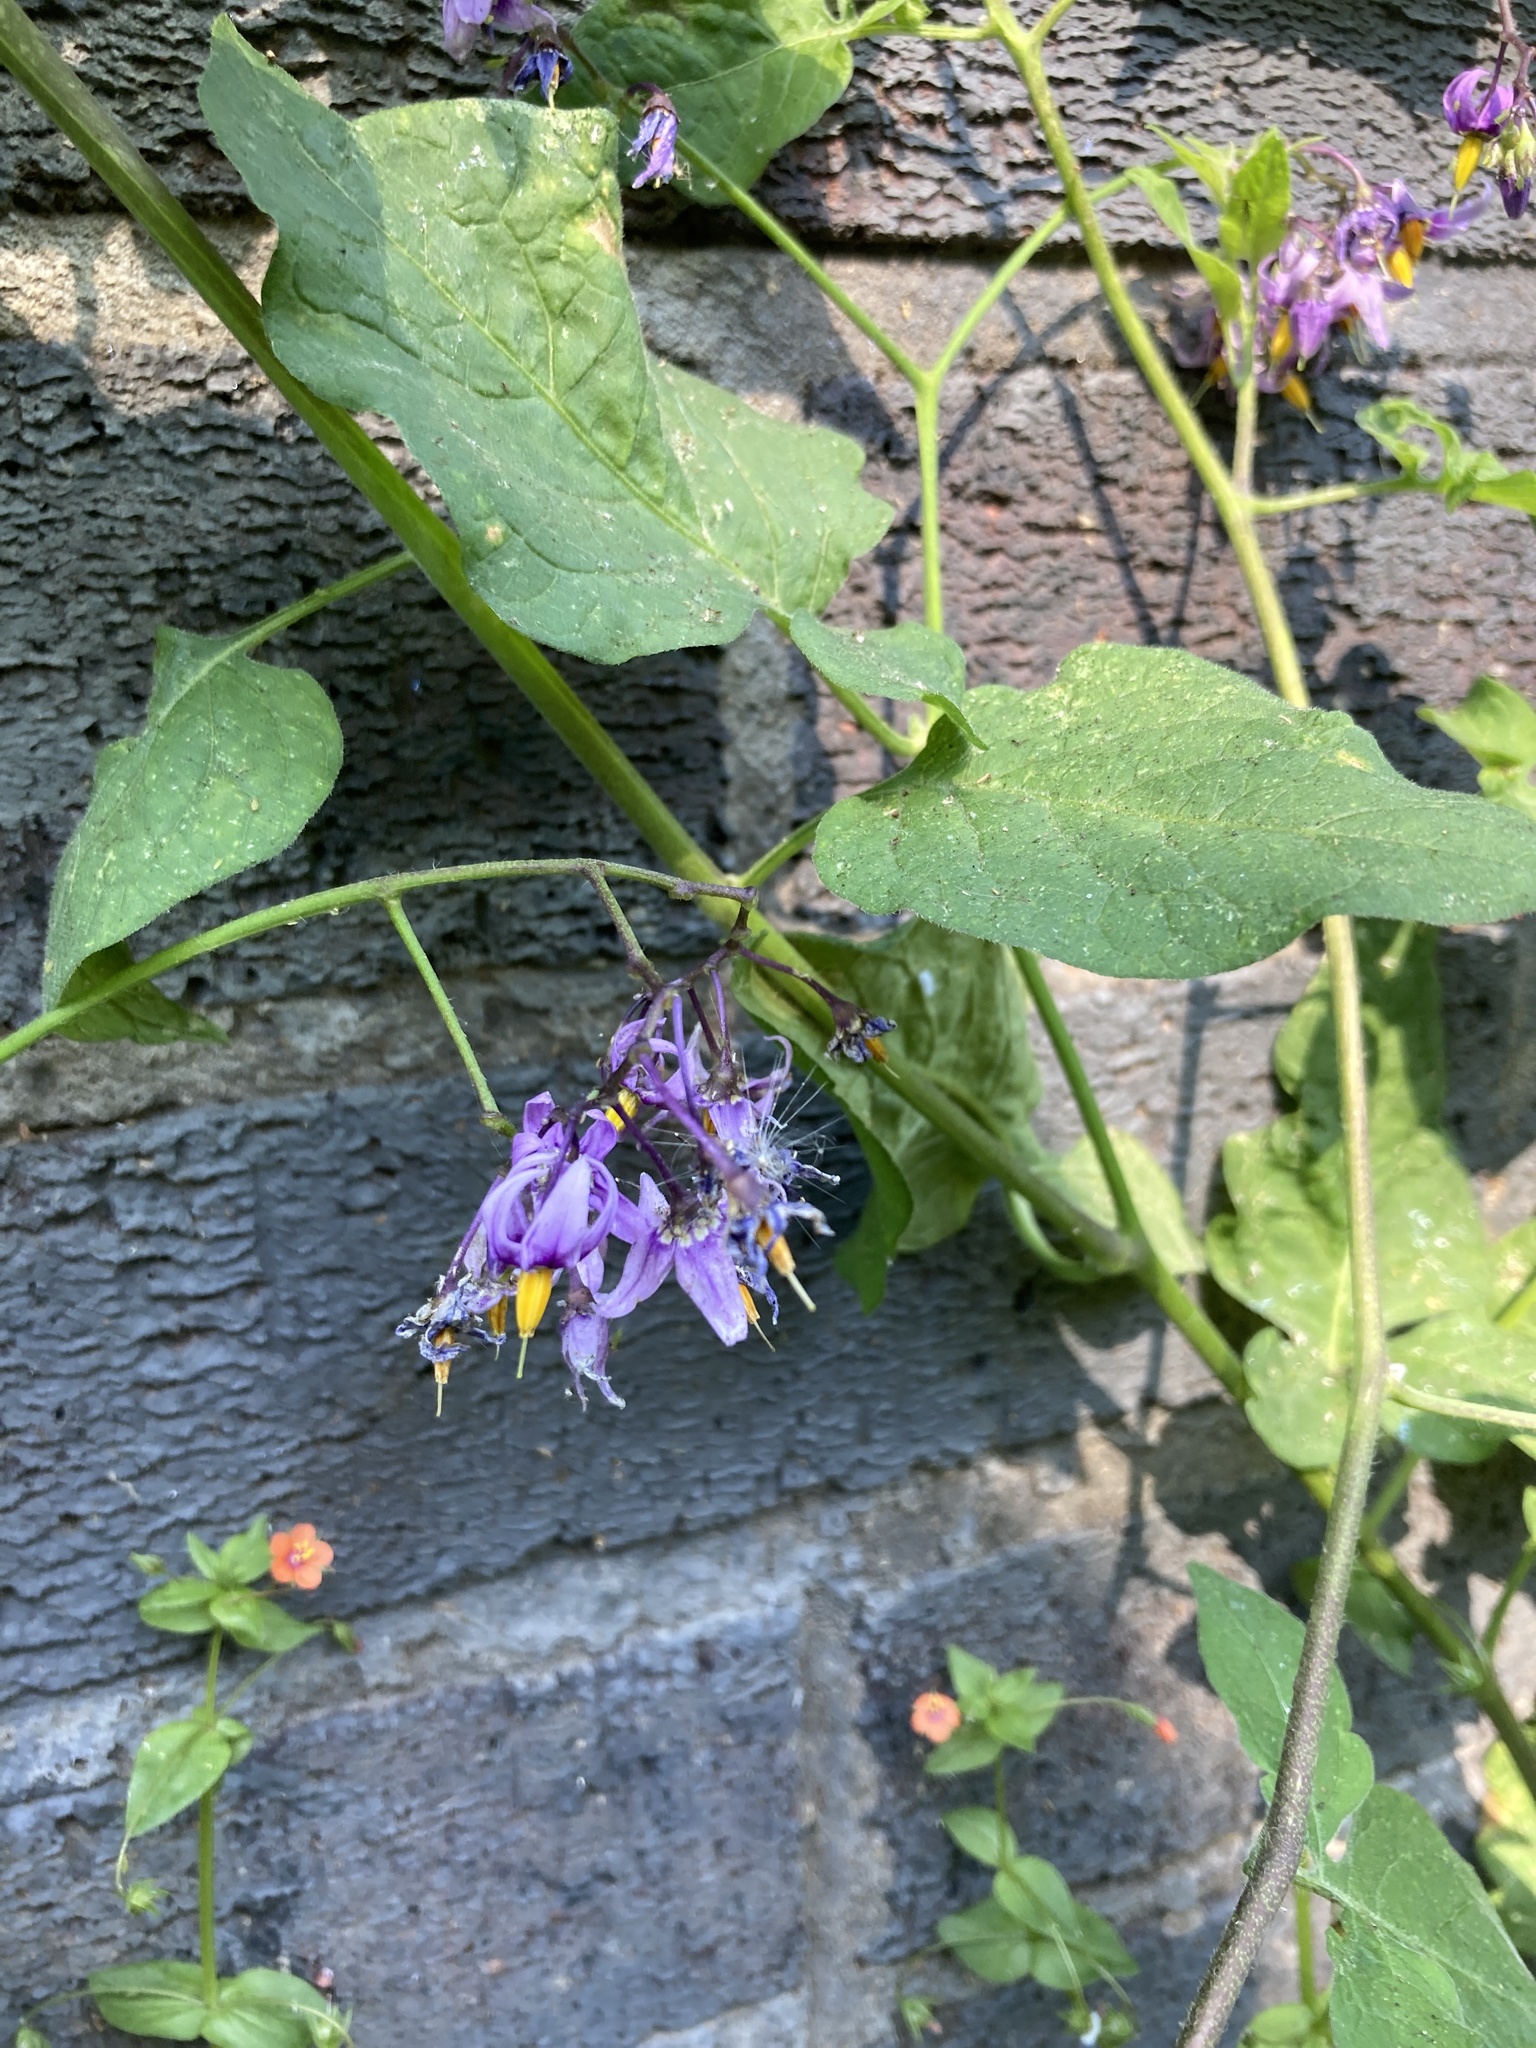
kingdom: Plantae
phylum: Tracheophyta
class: Magnoliopsida
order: Solanales
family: Solanaceae
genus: Solanum
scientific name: Solanum dulcamara
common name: Climbing nightshade
